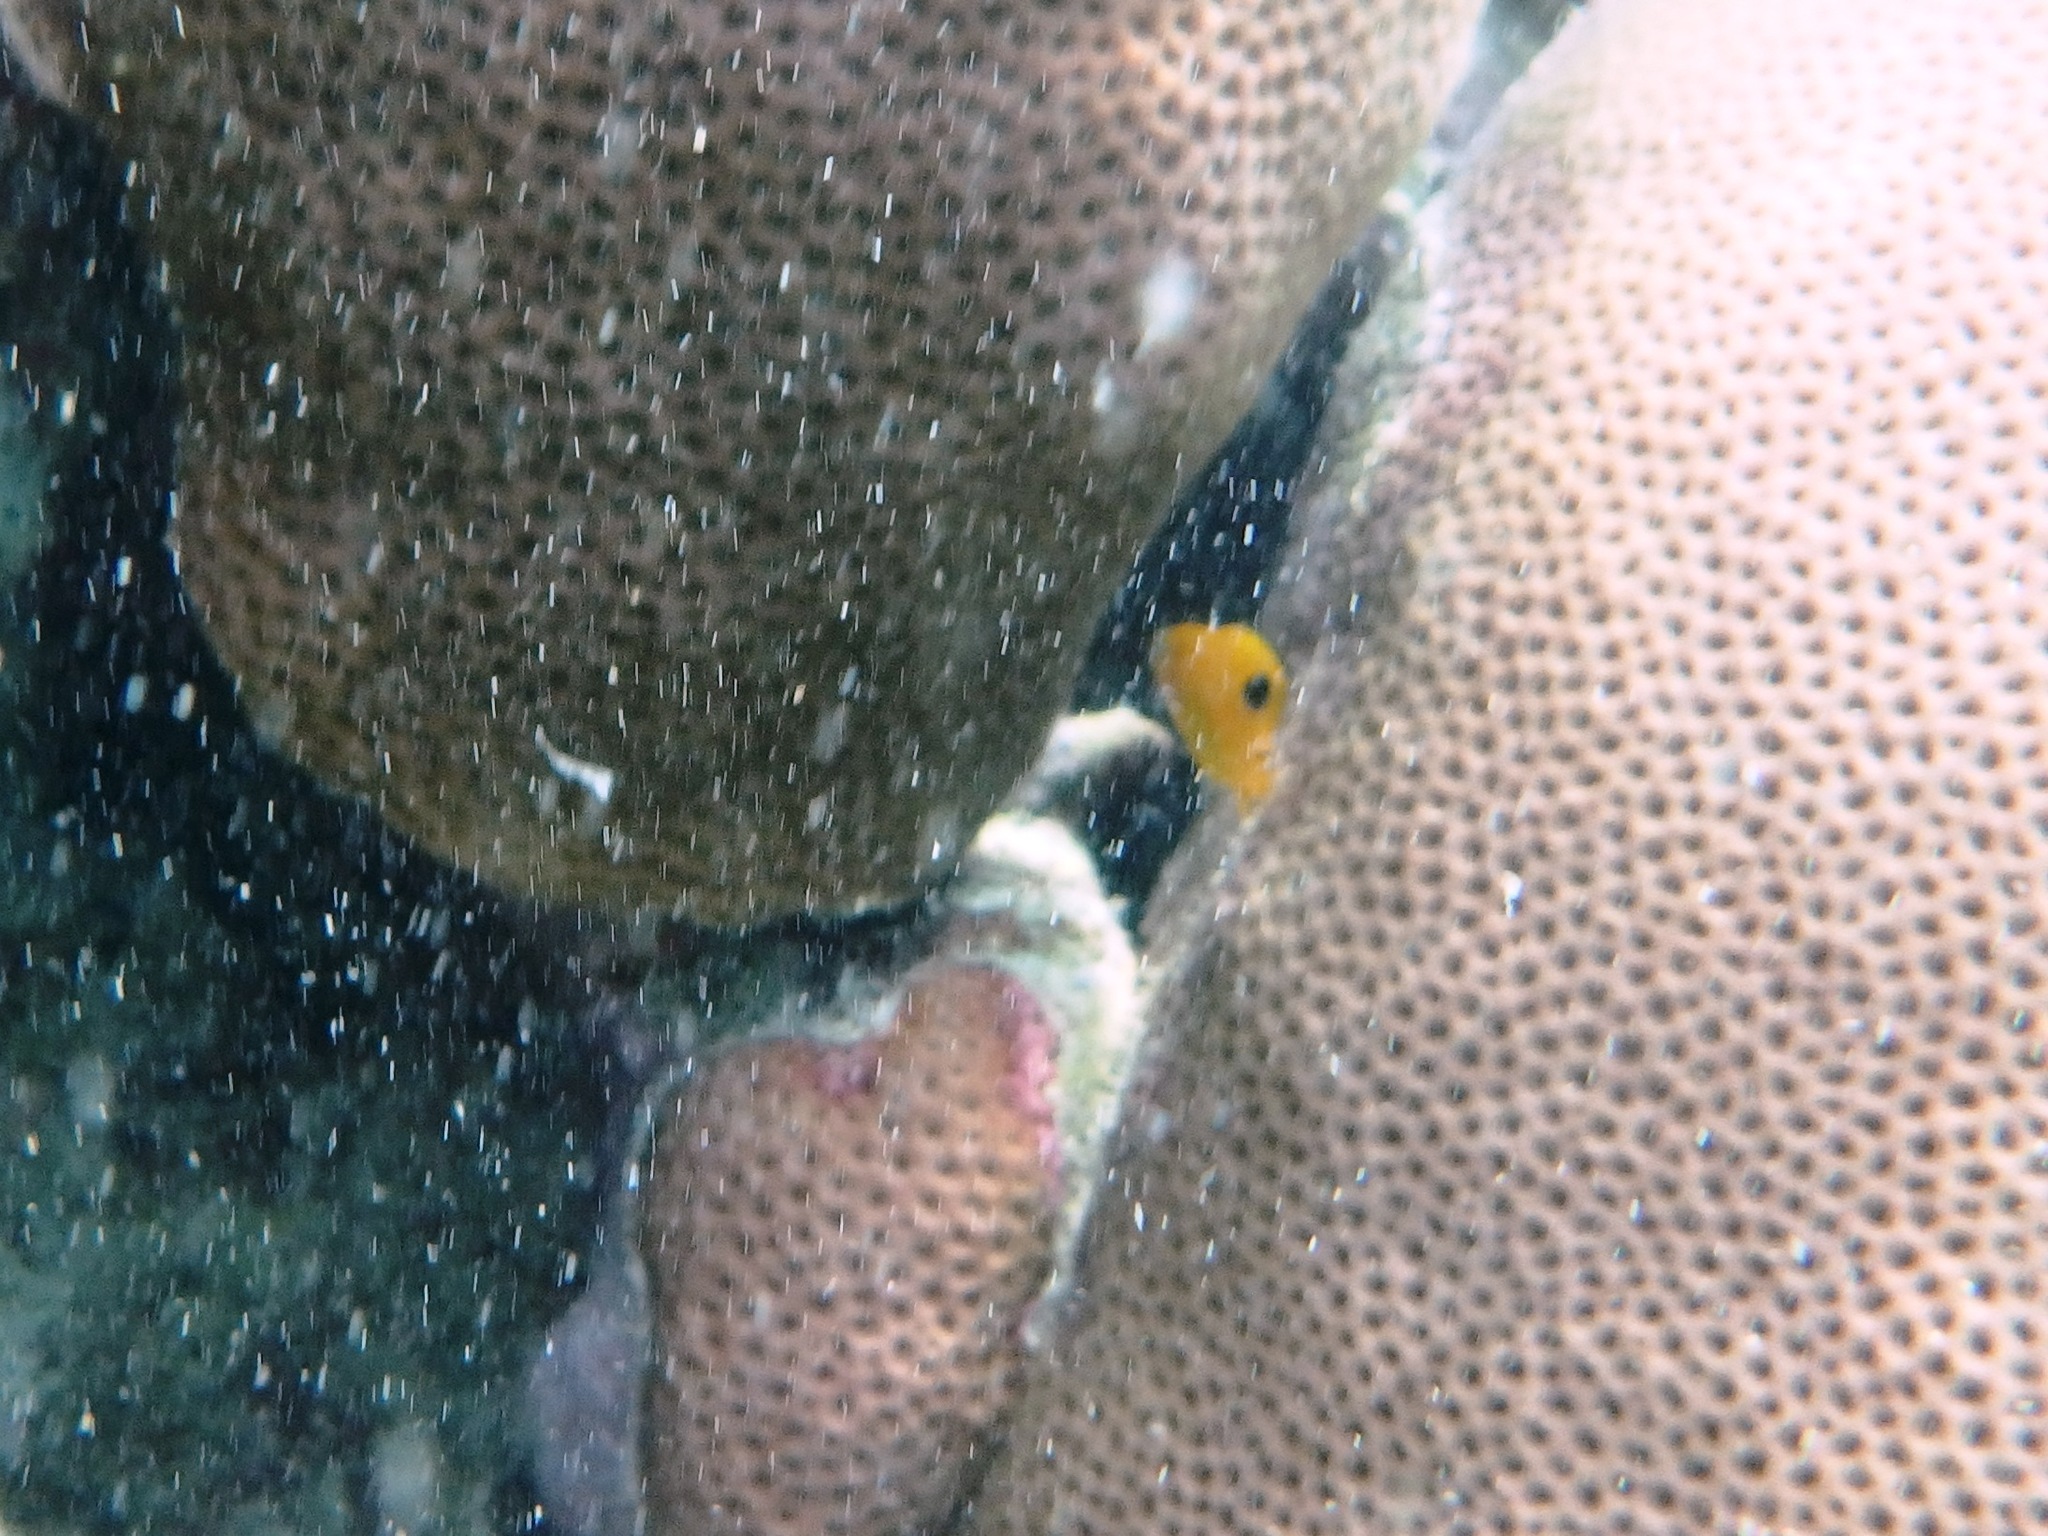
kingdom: Animalia
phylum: Chordata
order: Perciformes
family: Pomacanthidae
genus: Holacanthus
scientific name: Holacanthus tricolor
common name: Rock beauty
